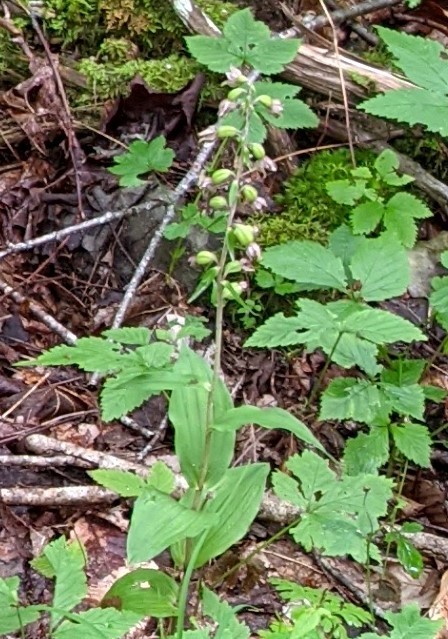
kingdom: Plantae
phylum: Tracheophyta
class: Liliopsida
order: Asparagales
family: Orchidaceae
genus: Epipactis
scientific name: Epipactis helleborine
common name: Broad-leaved helleborine
